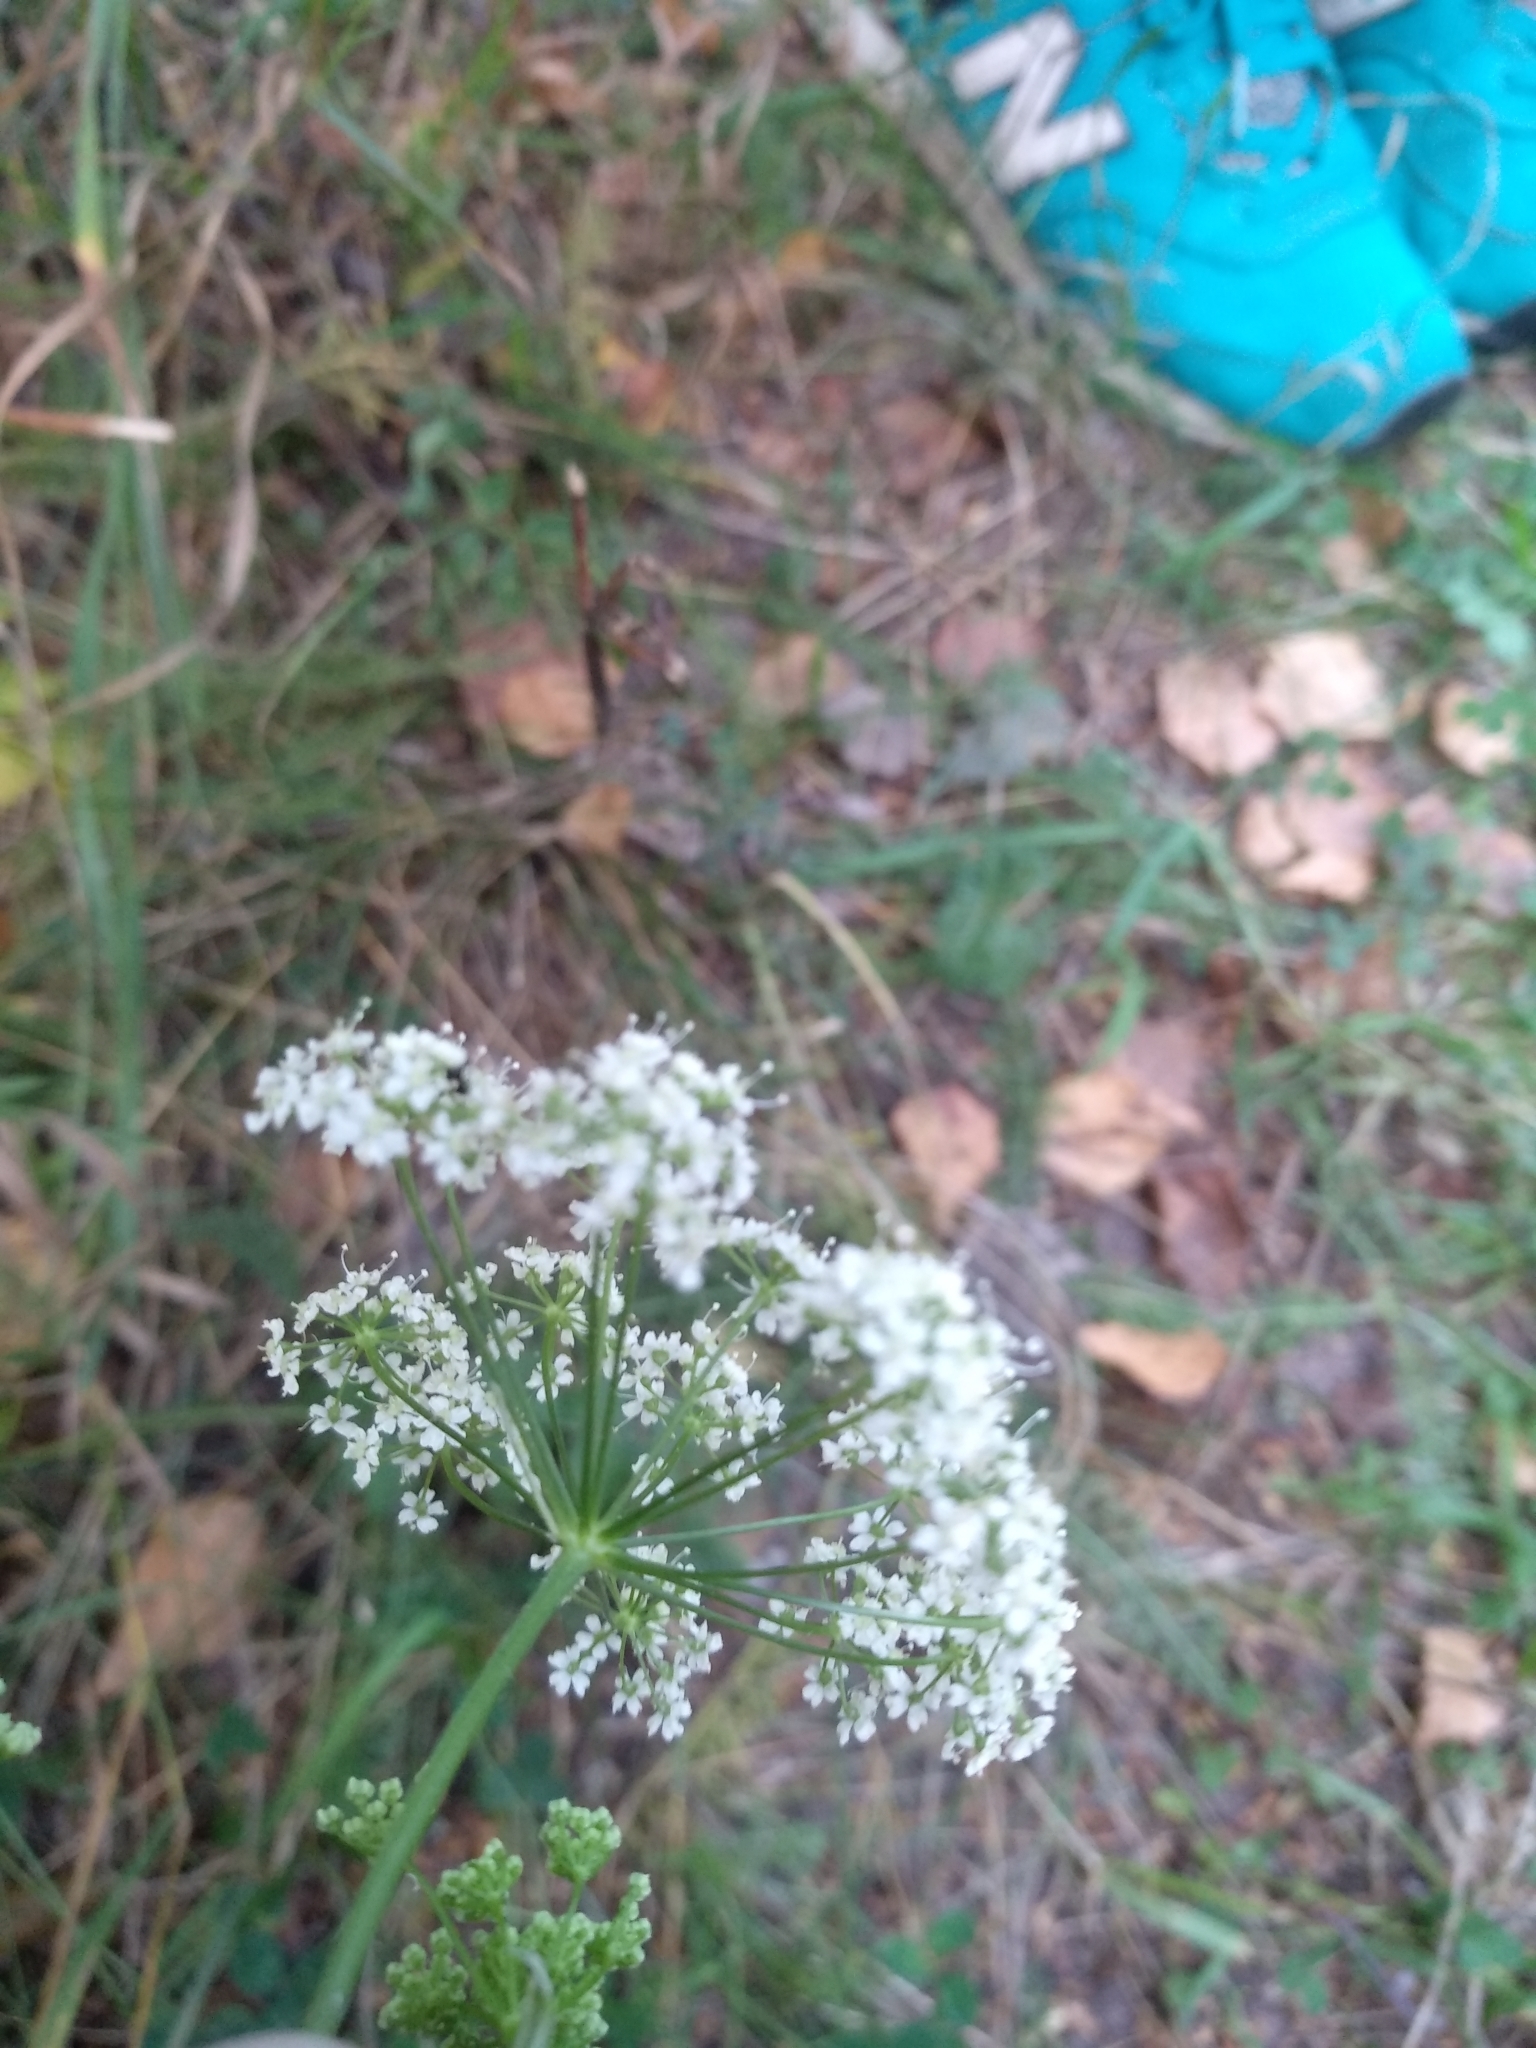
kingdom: Plantae
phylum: Tracheophyta
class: Magnoliopsida
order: Apiales
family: Apiaceae
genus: Pimpinella
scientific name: Pimpinella saxifraga
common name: Burnet-saxifrage
